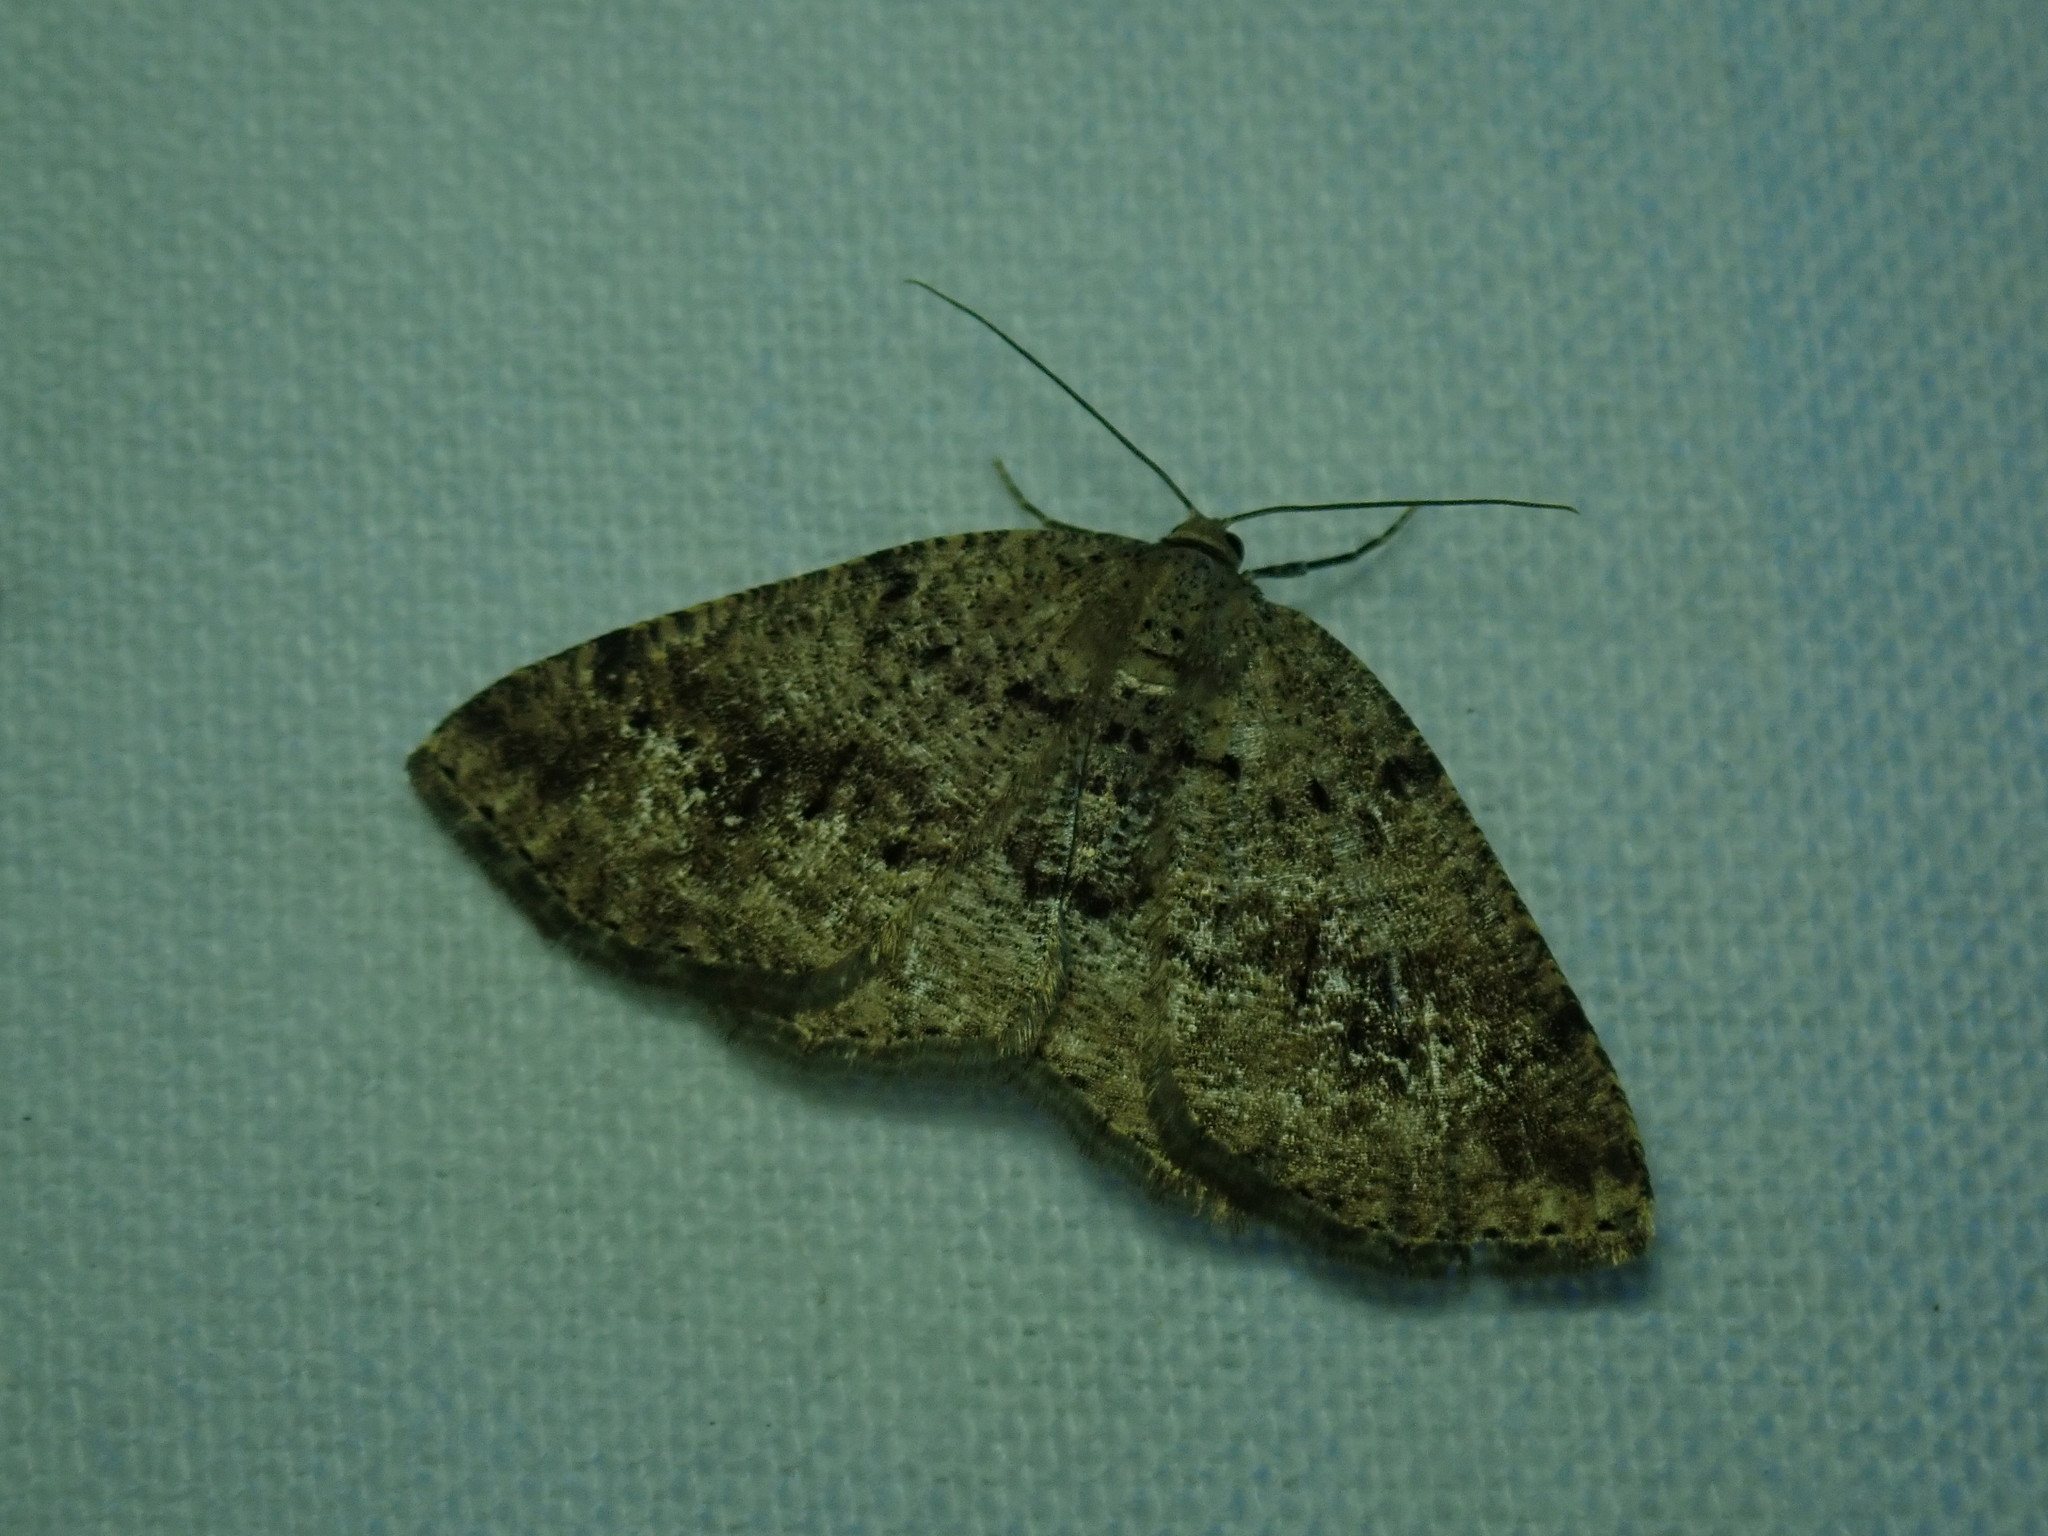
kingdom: Animalia
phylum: Arthropoda
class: Insecta
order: Lepidoptera
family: Geometridae
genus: Homochlodes
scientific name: Homochlodes fritillaria
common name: Pale homochlodes
